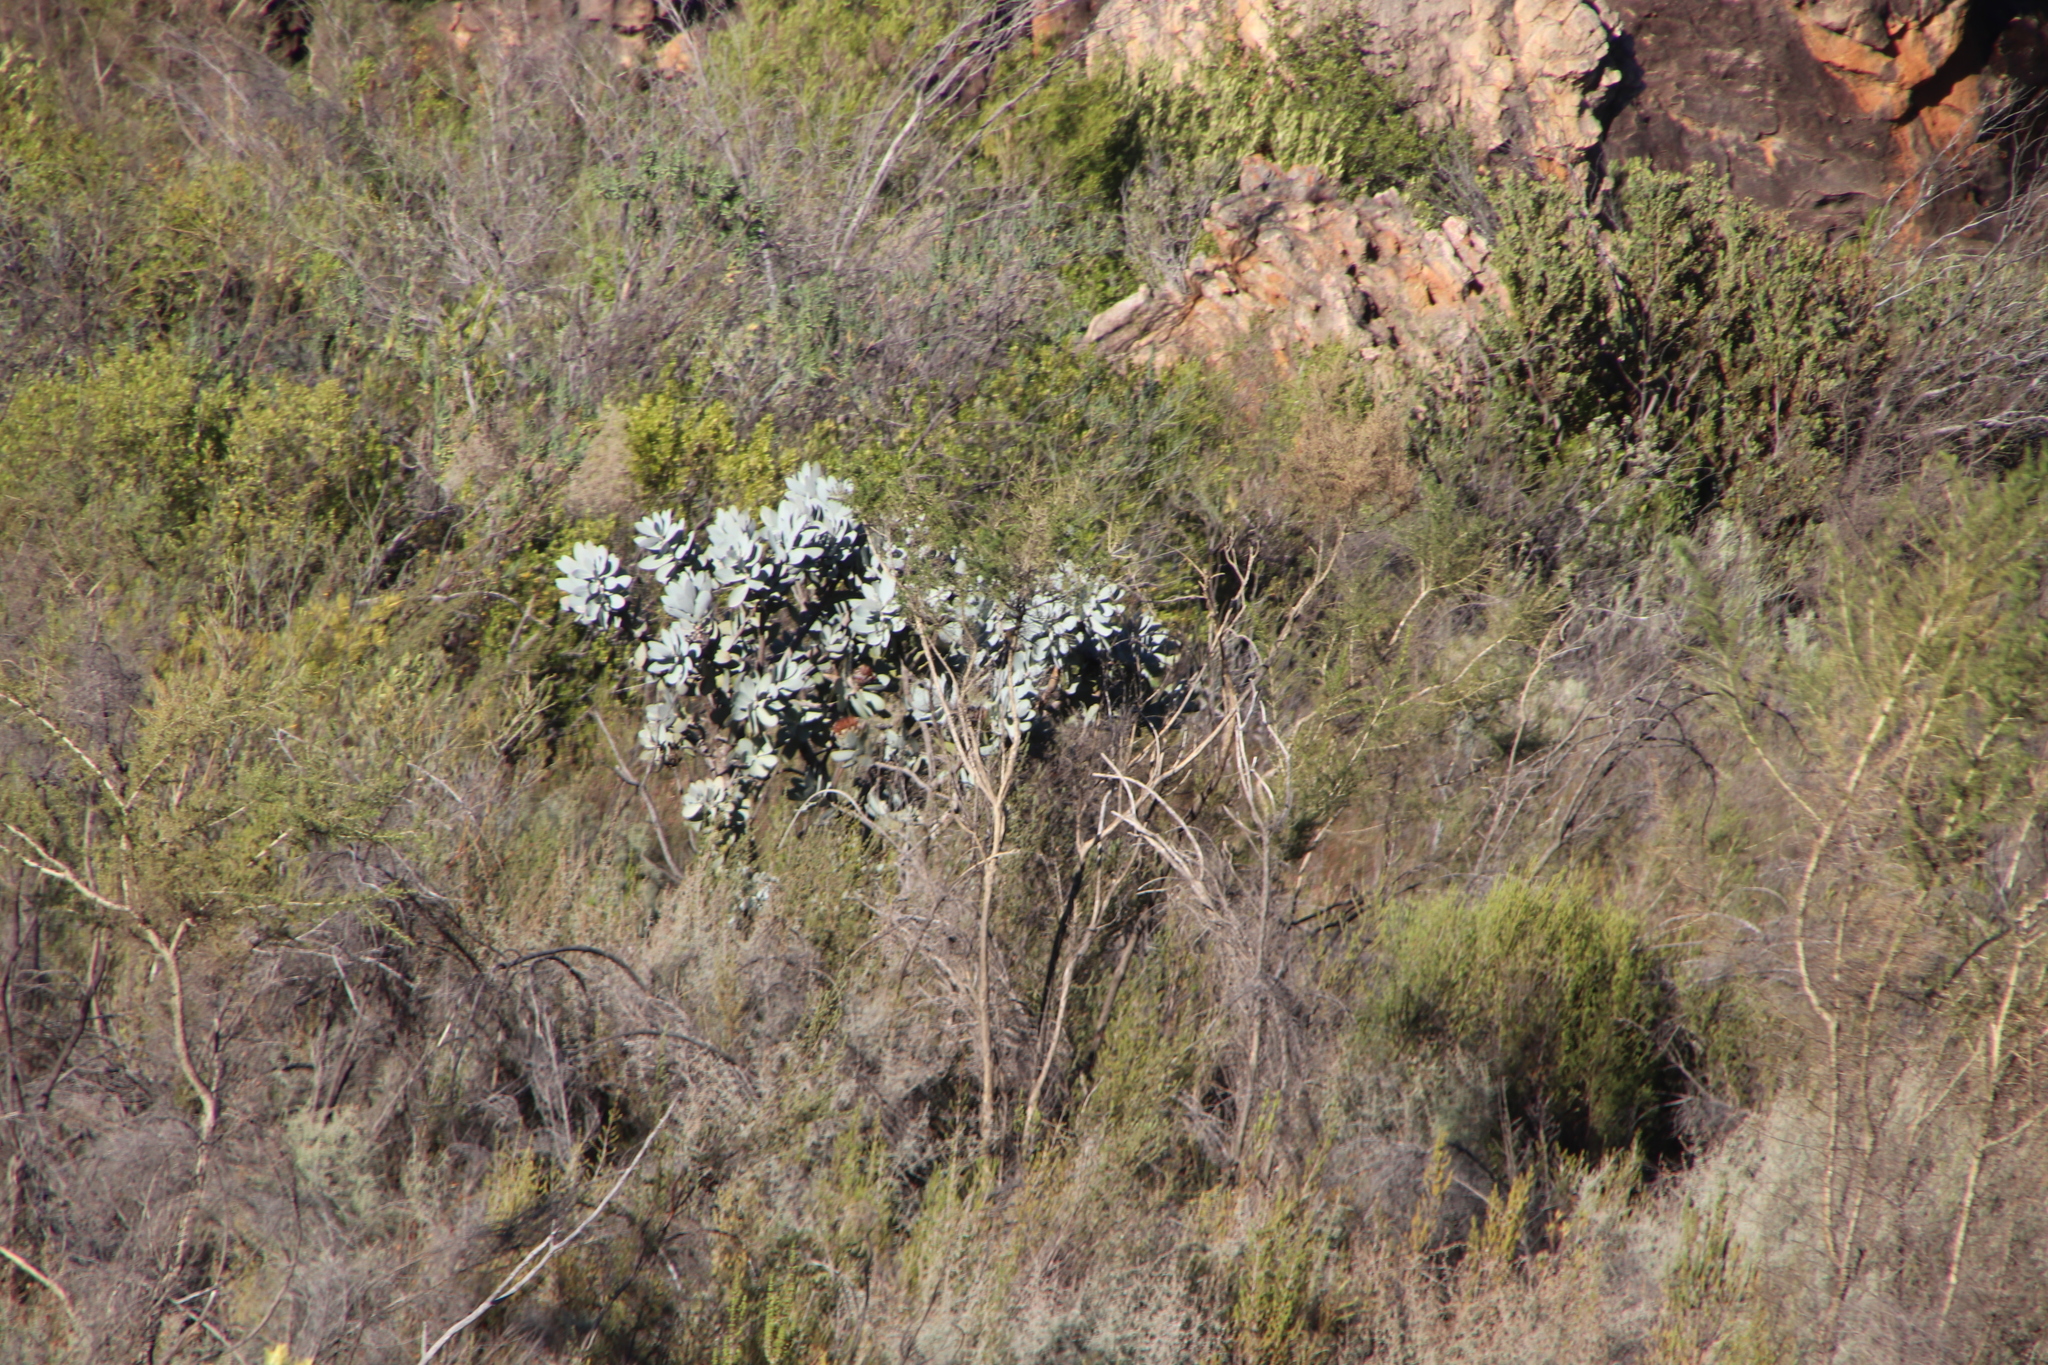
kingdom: Plantae
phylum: Tracheophyta
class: Magnoliopsida
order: Proteales
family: Proteaceae
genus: Protea
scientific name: Protea nitida
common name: Tree protea
